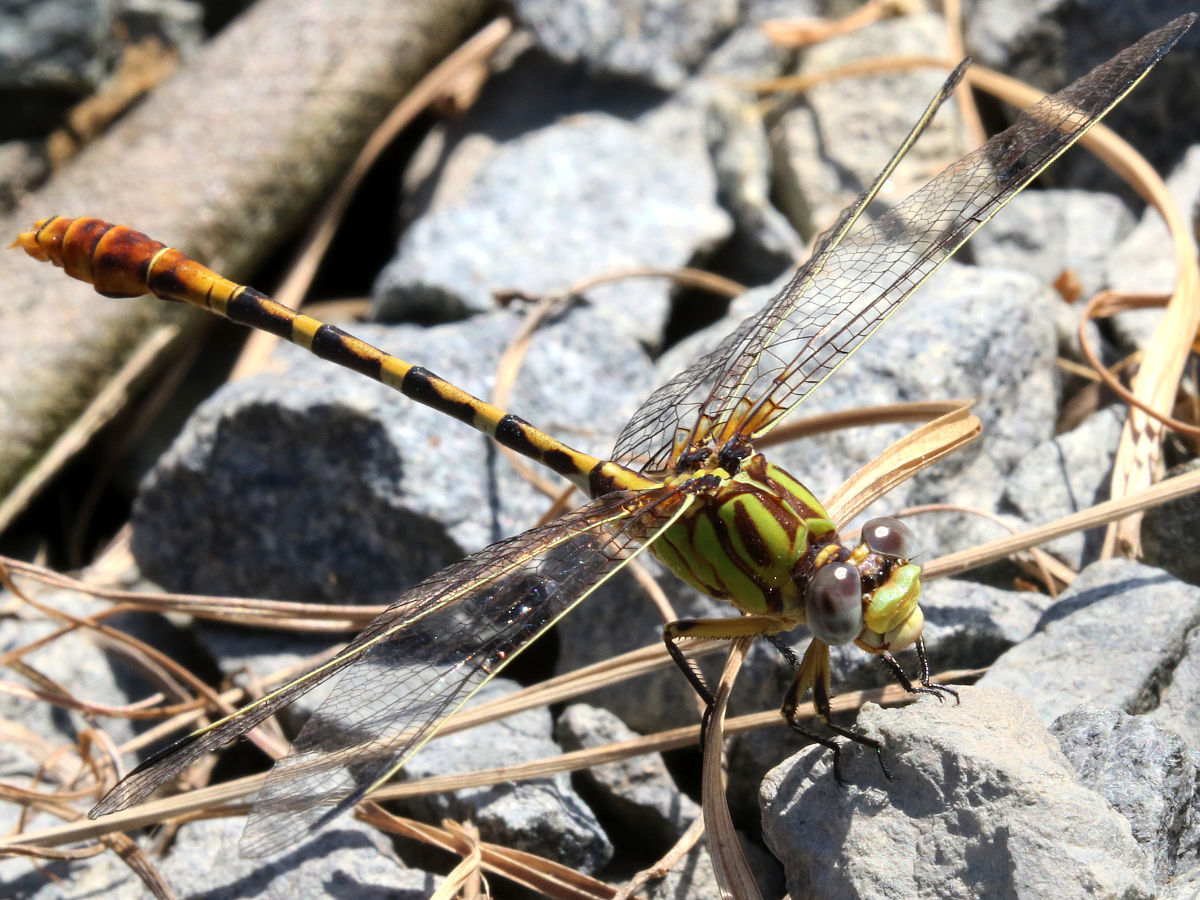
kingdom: Animalia
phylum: Arthropoda
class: Insecta
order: Odonata
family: Gomphidae
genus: Erpetogomphus
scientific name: Erpetogomphus designatus
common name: Eastern ringtail
